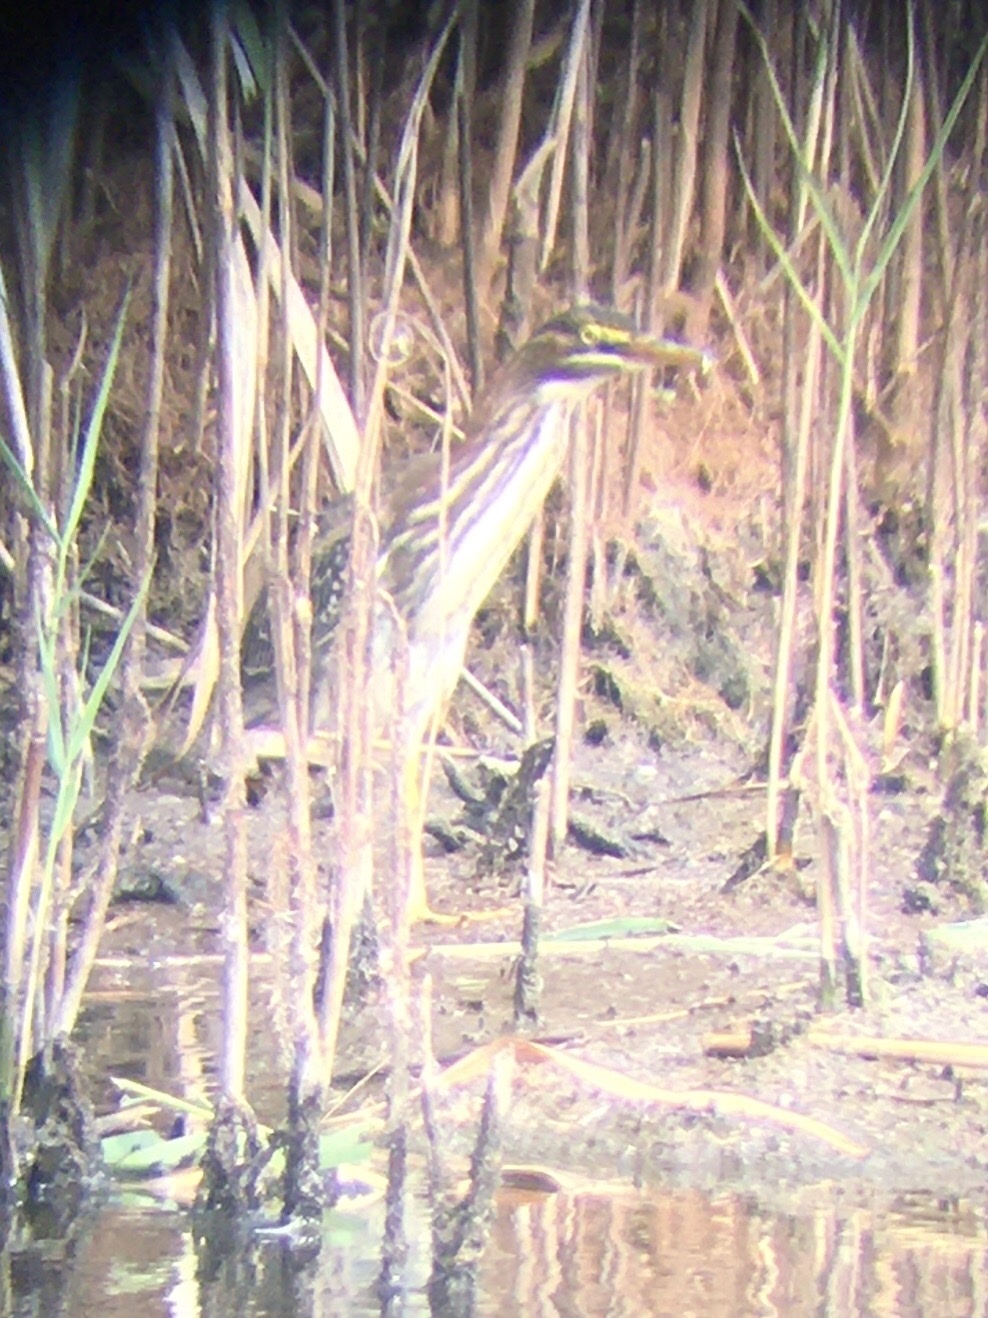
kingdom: Animalia
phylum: Chordata
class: Aves
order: Pelecaniformes
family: Ardeidae
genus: Butorides
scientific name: Butorides virescens
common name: Green heron
